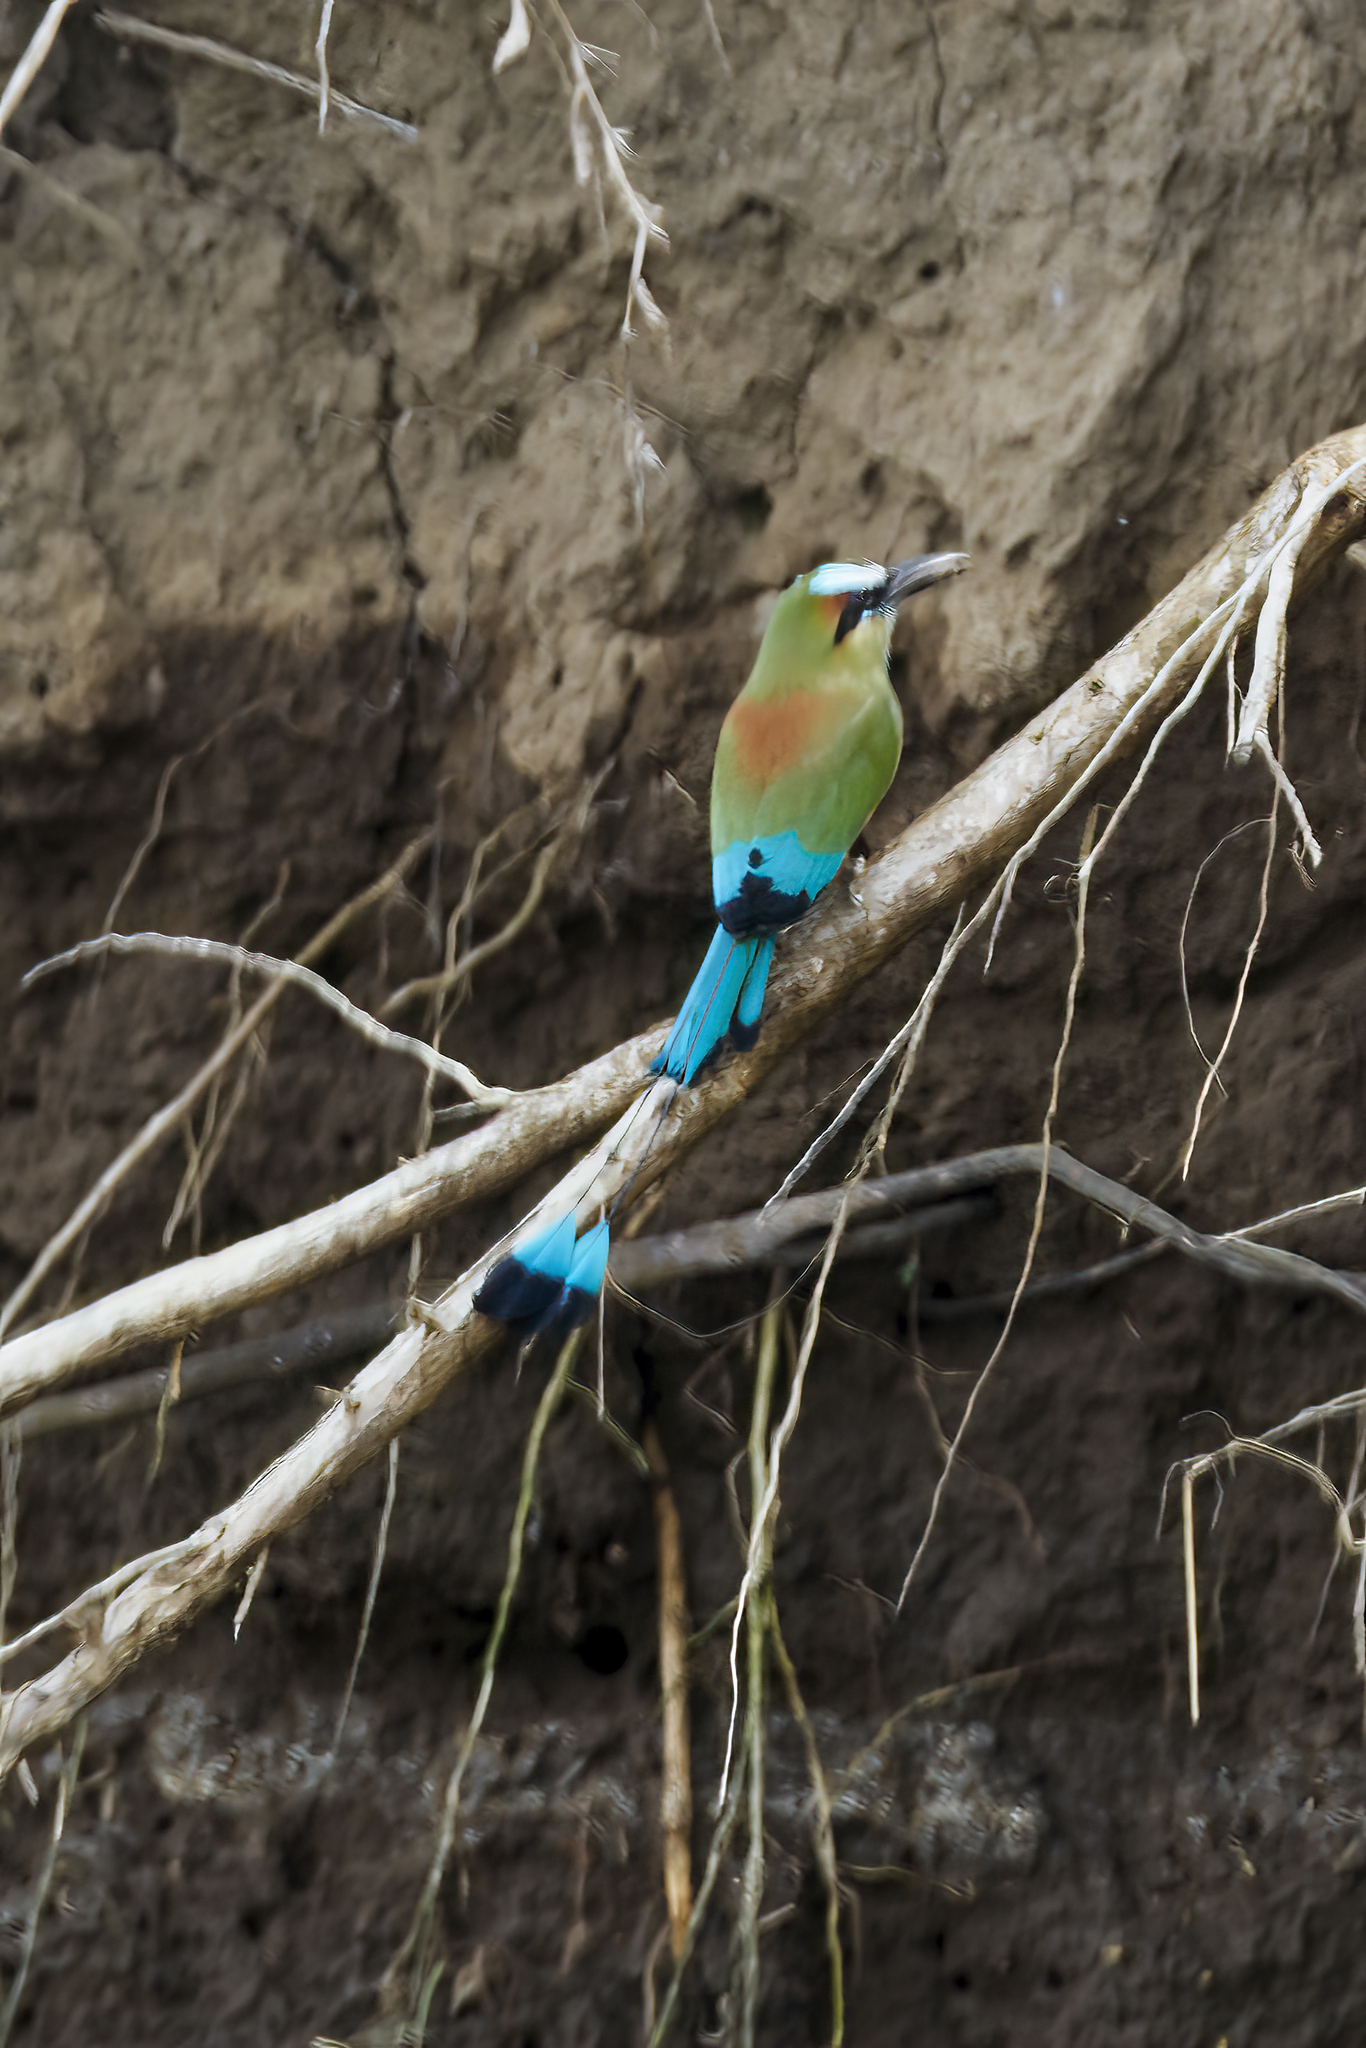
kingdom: Animalia
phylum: Chordata
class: Aves
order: Coraciiformes
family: Momotidae
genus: Eumomota
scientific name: Eumomota superciliosa
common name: Turquoise-browed motmot
